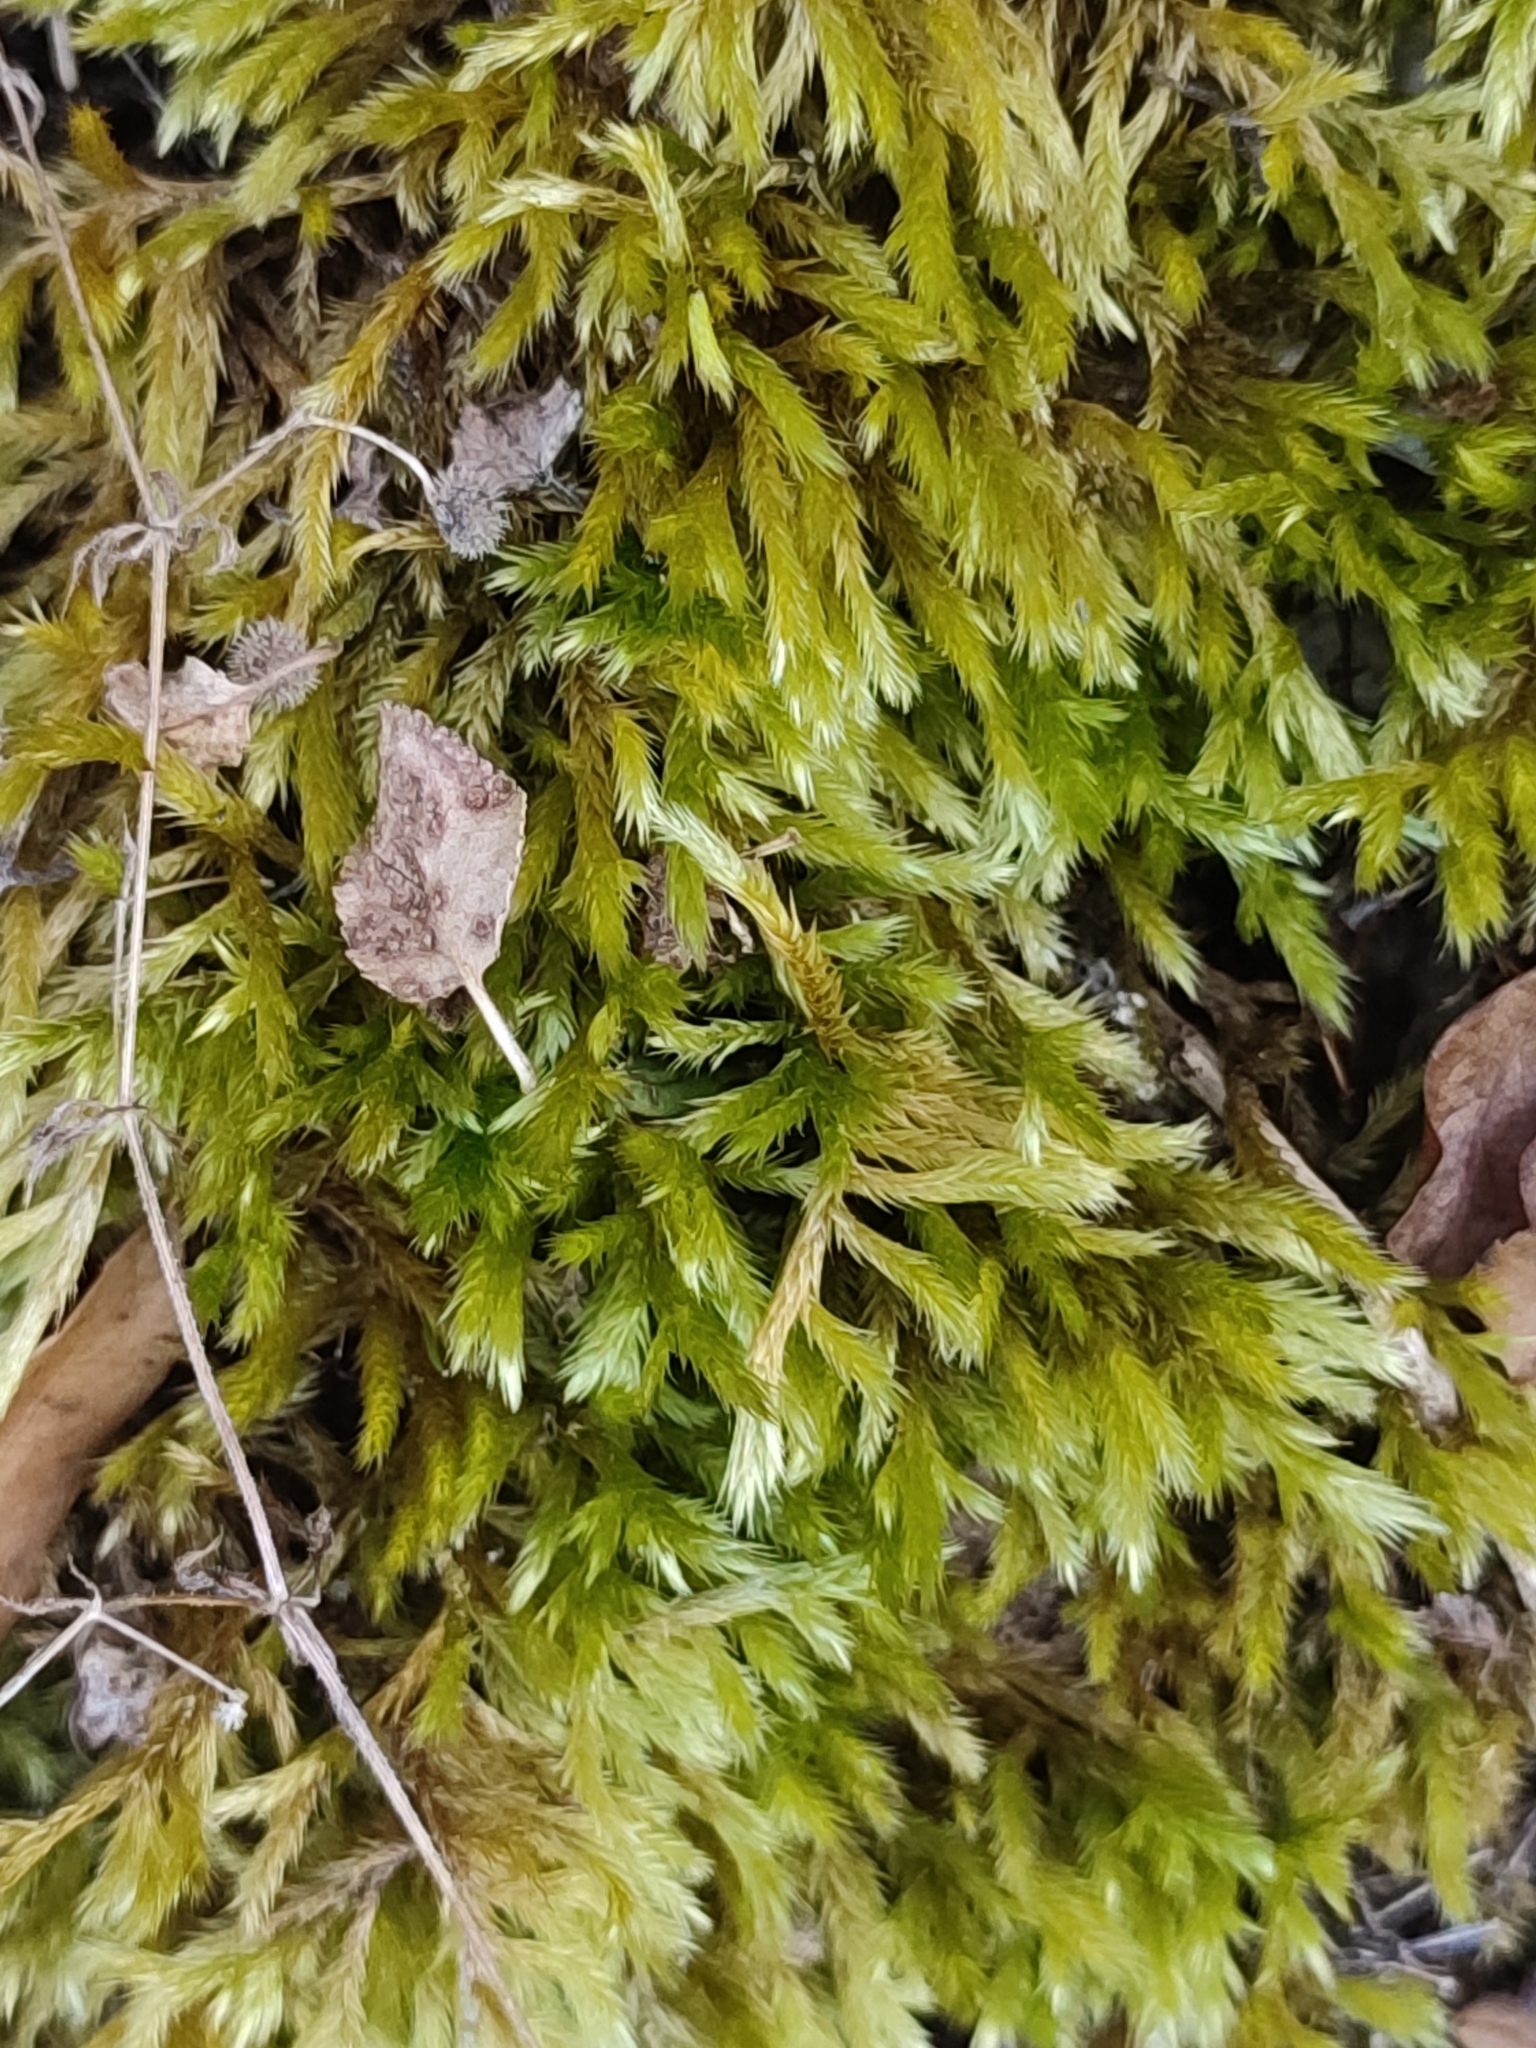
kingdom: Plantae
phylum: Bryophyta
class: Bryopsida
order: Hypnales
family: Brachytheciaceae
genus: Homalothecium
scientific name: Homalothecium lutescens
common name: Yellow feather-moss
